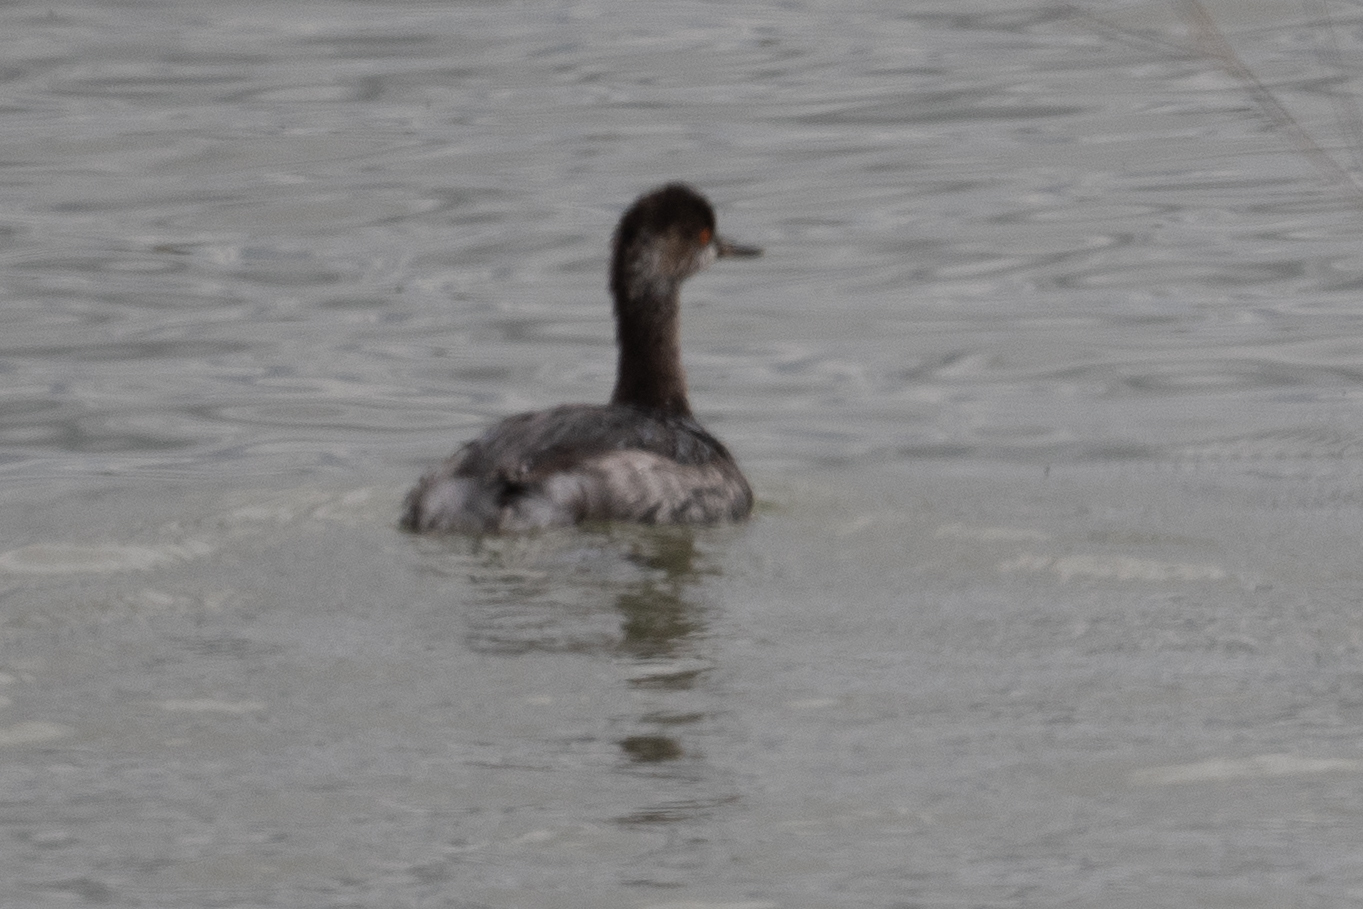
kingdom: Animalia
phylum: Chordata
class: Aves
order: Podicipediformes
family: Podicipedidae
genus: Podiceps
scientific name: Podiceps nigricollis
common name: Black-necked grebe
